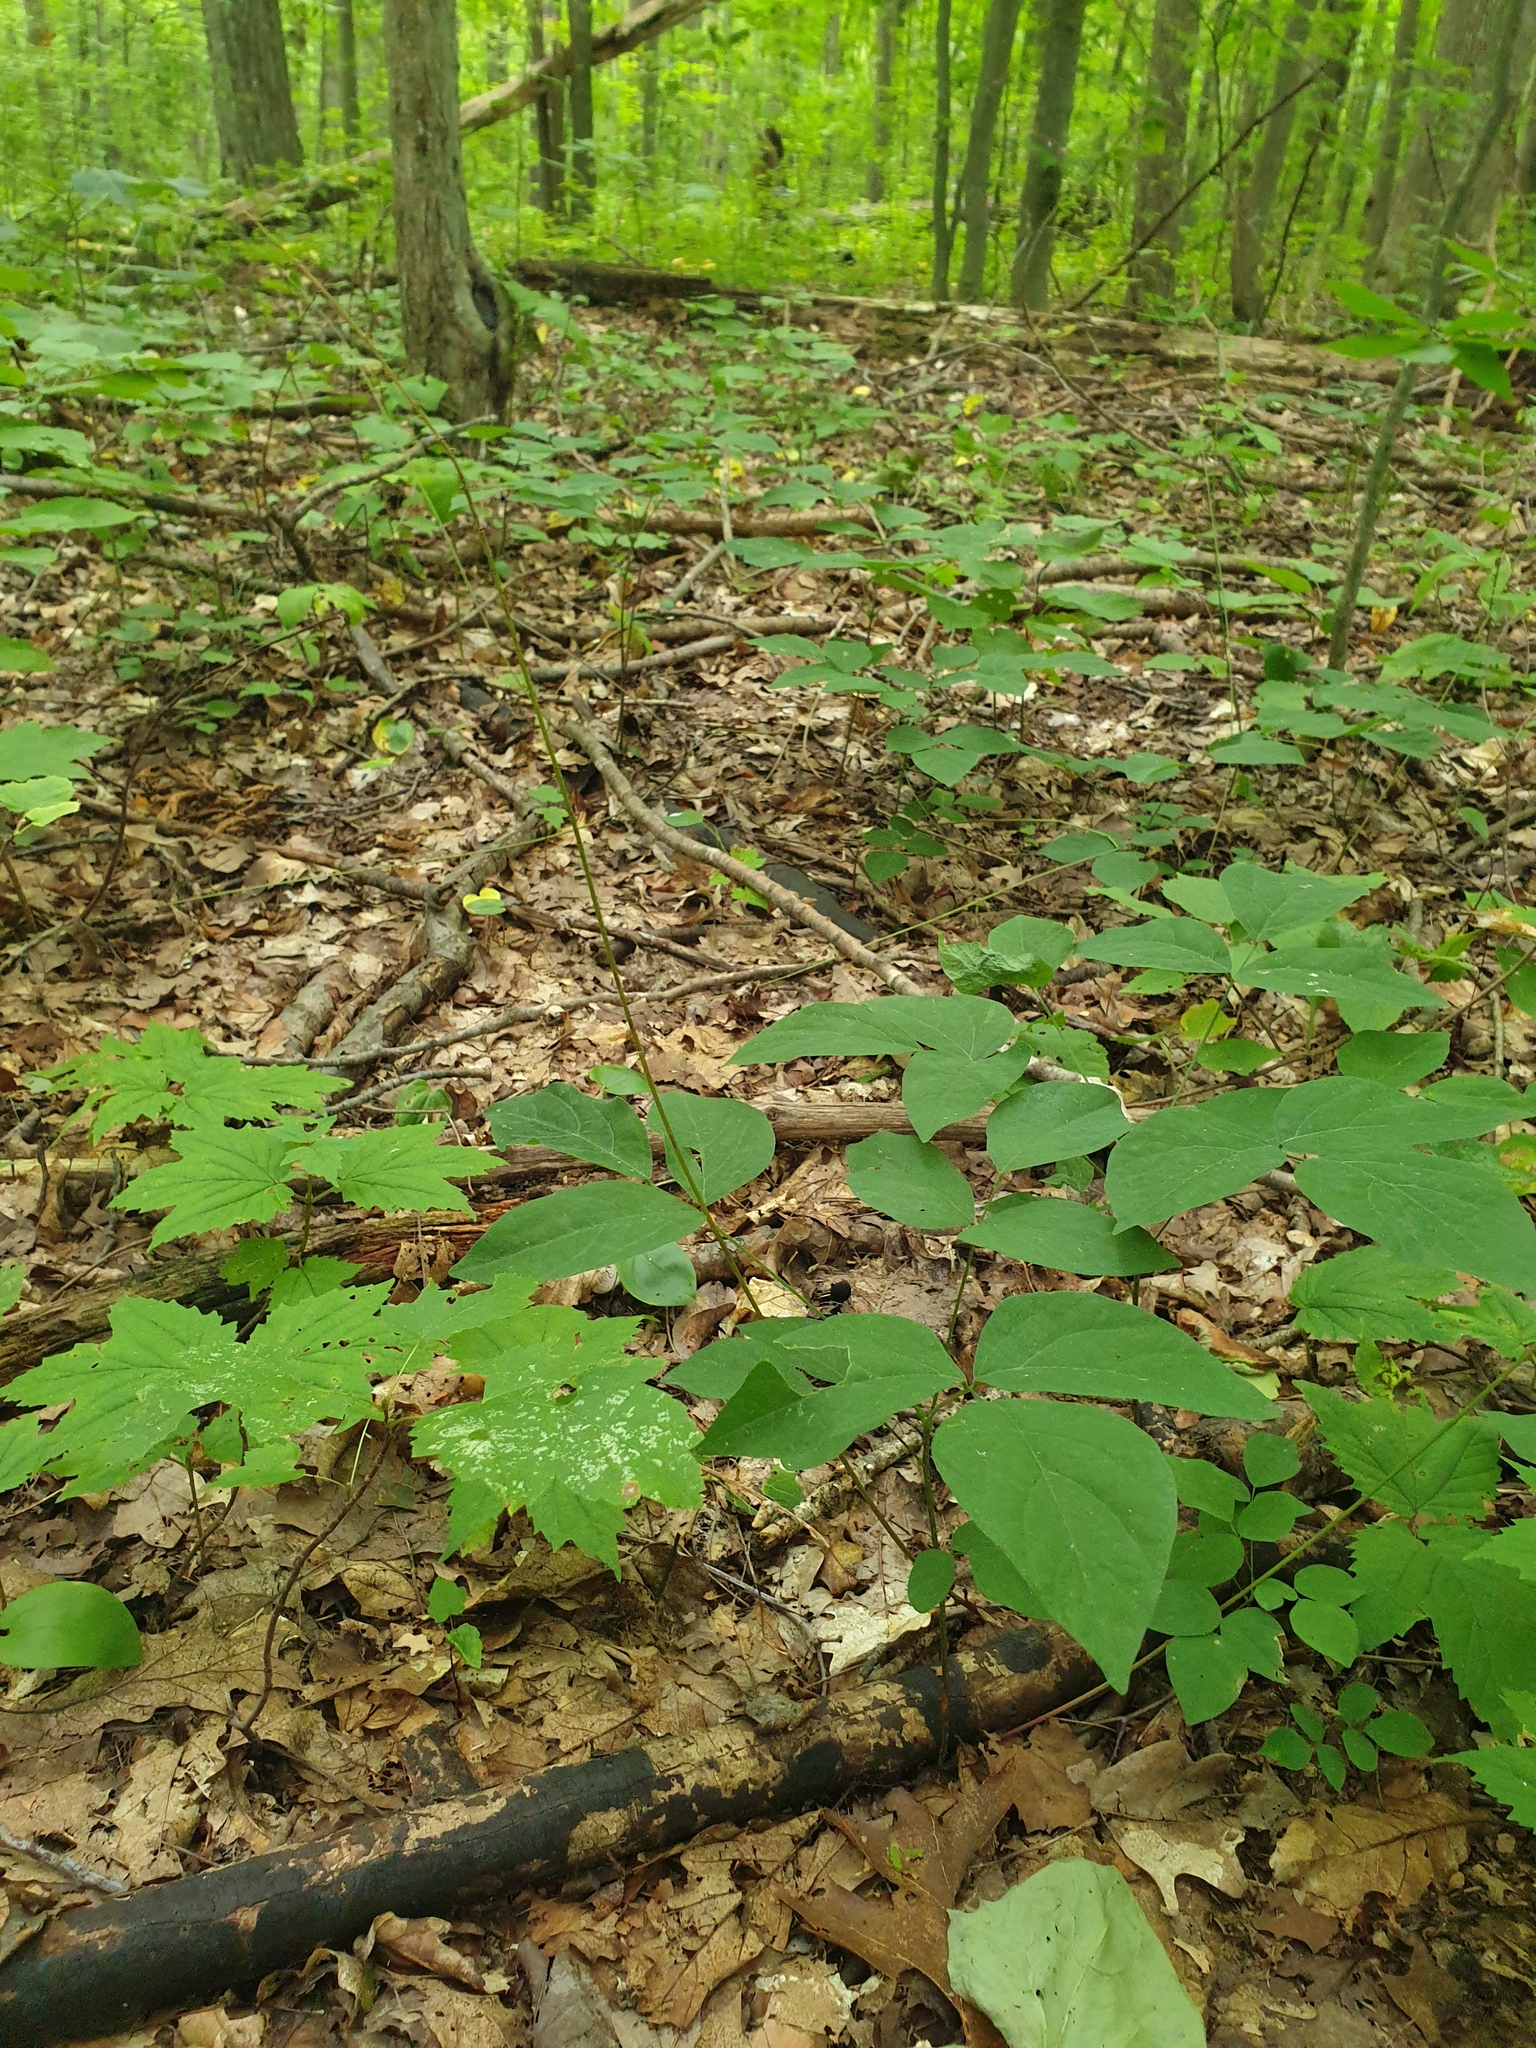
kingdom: Plantae
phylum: Tracheophyta
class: Magnoliopsida
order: Fabales
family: Fabaceae
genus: Hylodesmum
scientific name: Hylodesmum nudiflorum
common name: Bare-stemmed tick-trefoil
